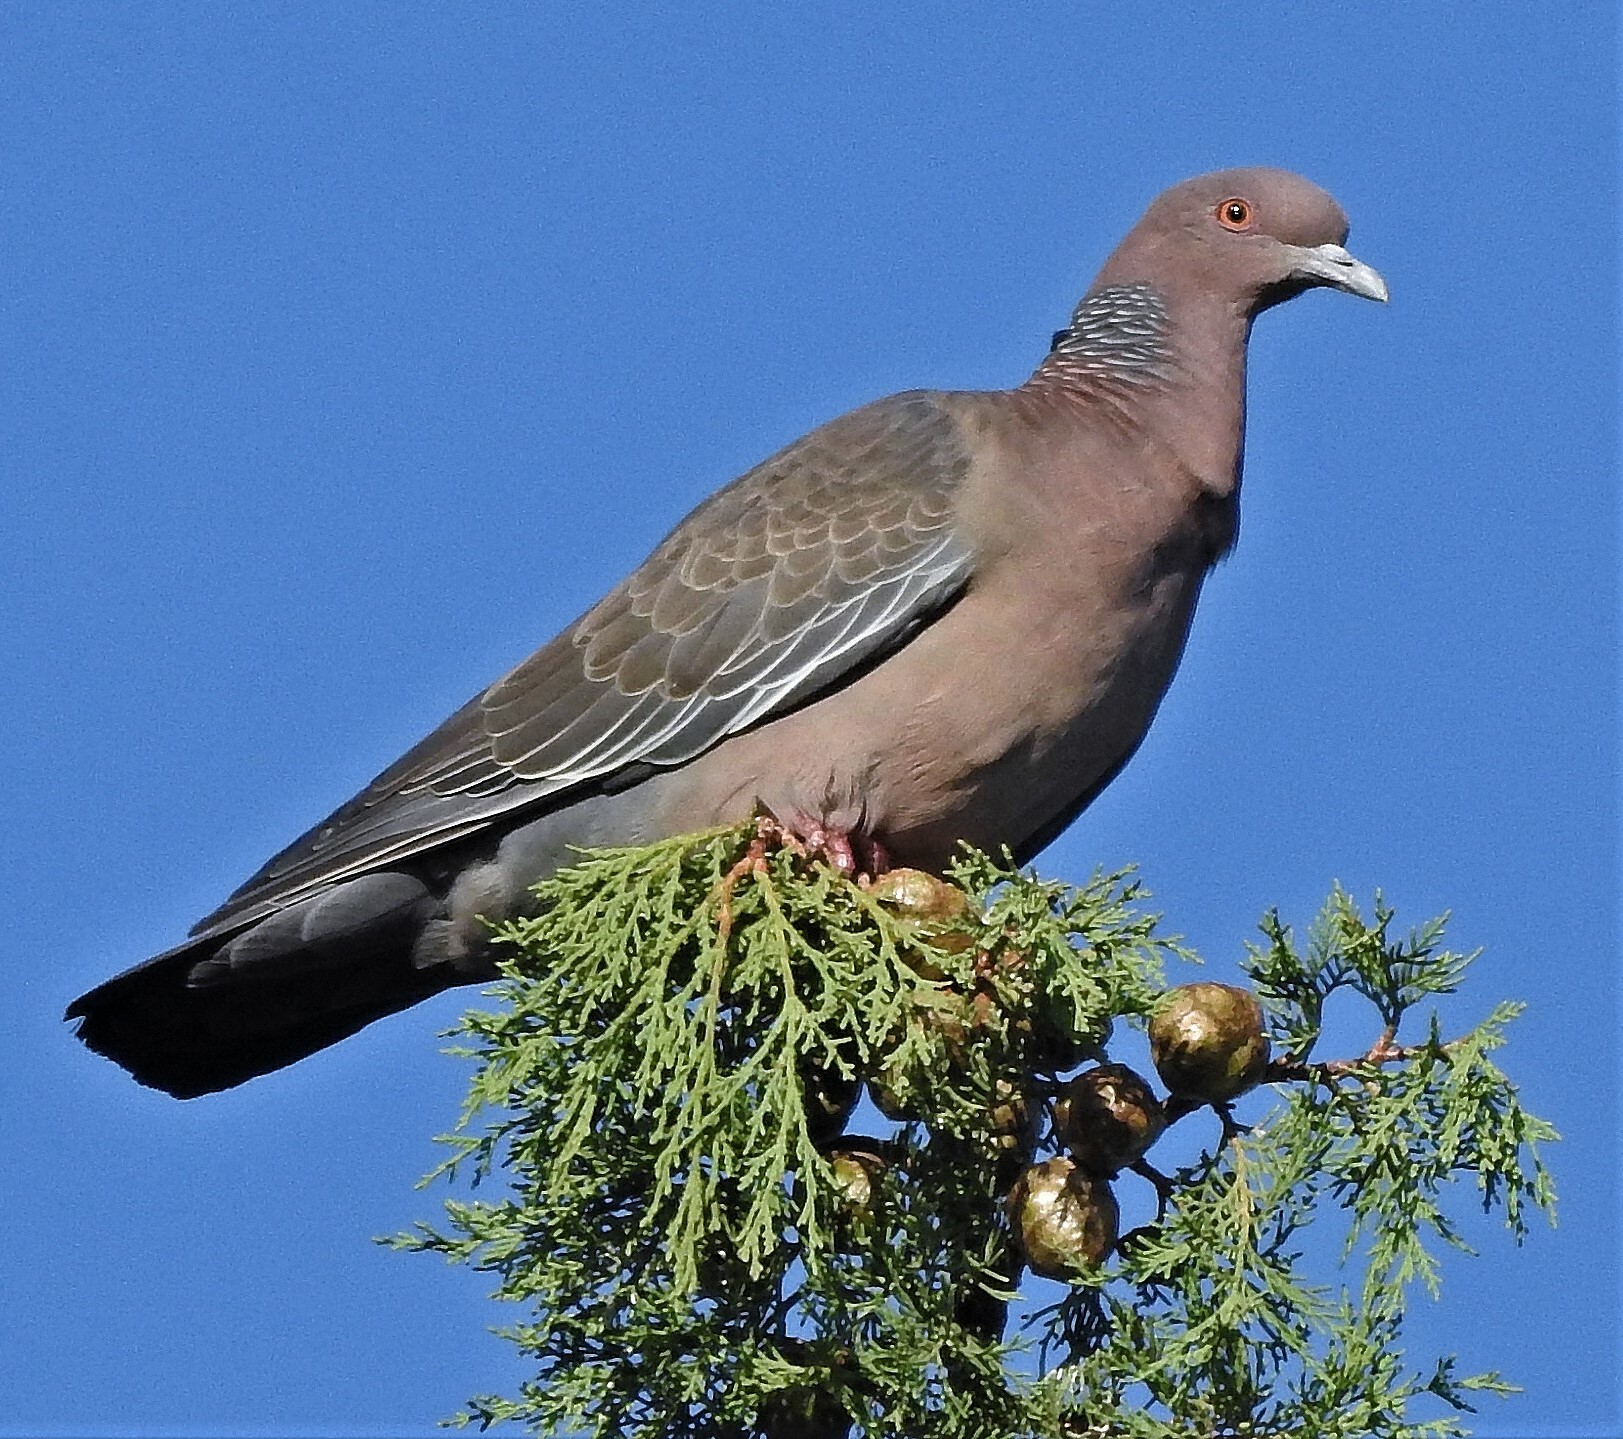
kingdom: Animalia
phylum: Chordata
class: Aves
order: Columbiformes
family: Columbidae
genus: Patagioenas
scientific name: Patagioenas picazuro
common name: Picazuro pigeon
